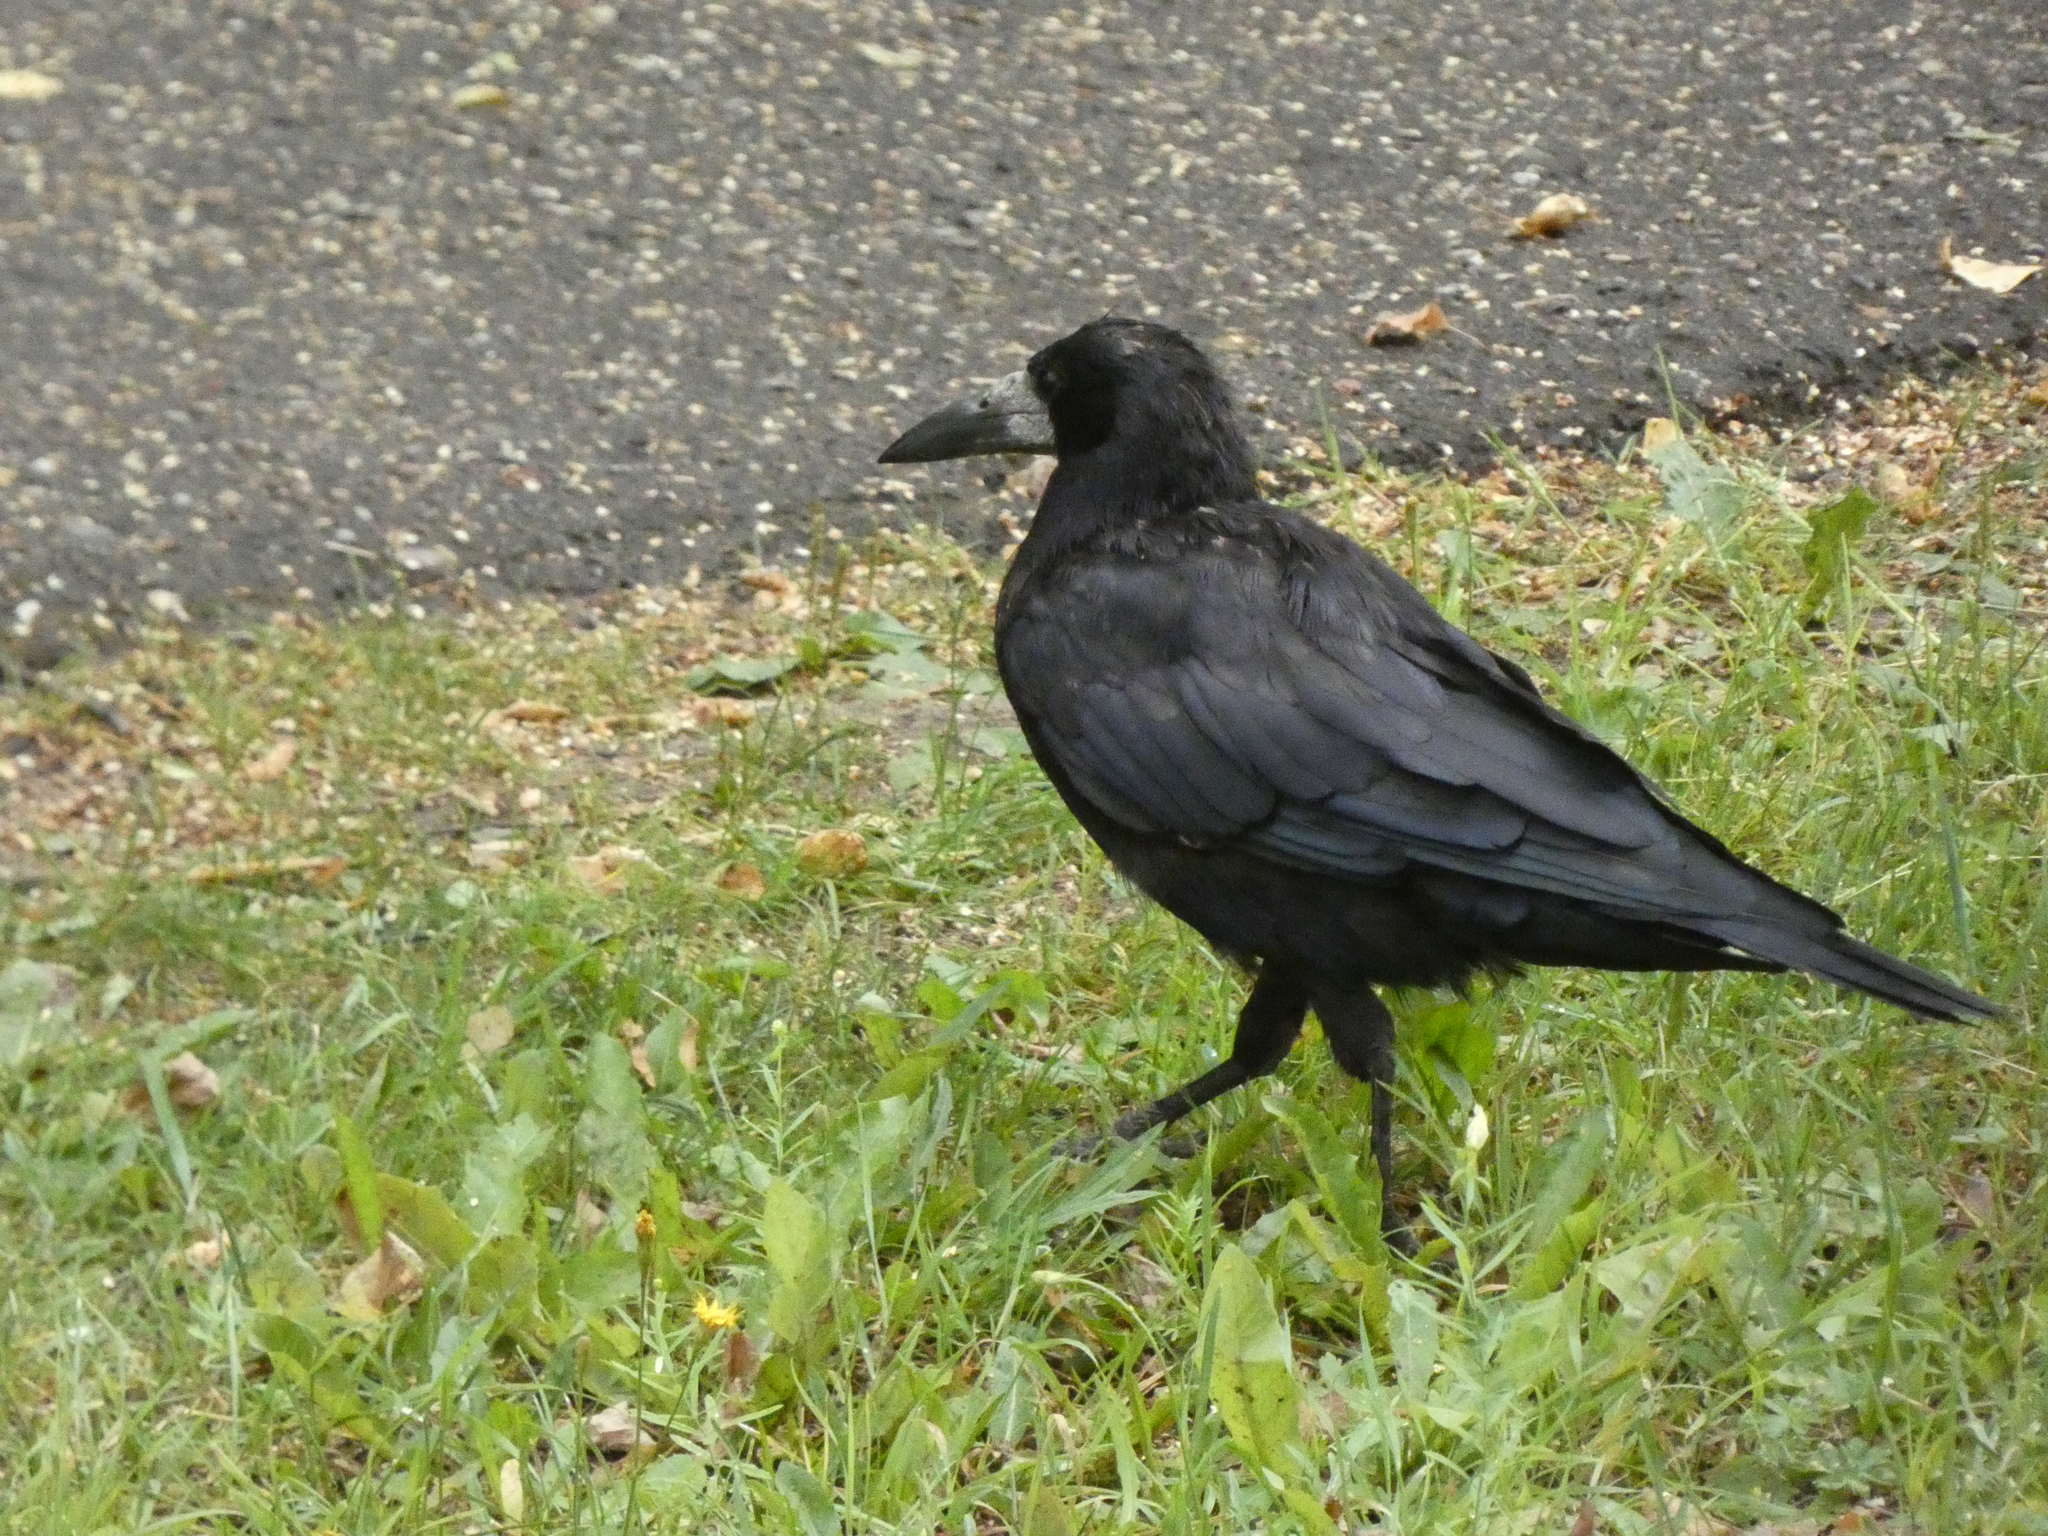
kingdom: Animalia
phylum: Chordata
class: Aves
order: Passeriformes
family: Corvidae
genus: Corvus
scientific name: Corvus frugilegus
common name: Rook
